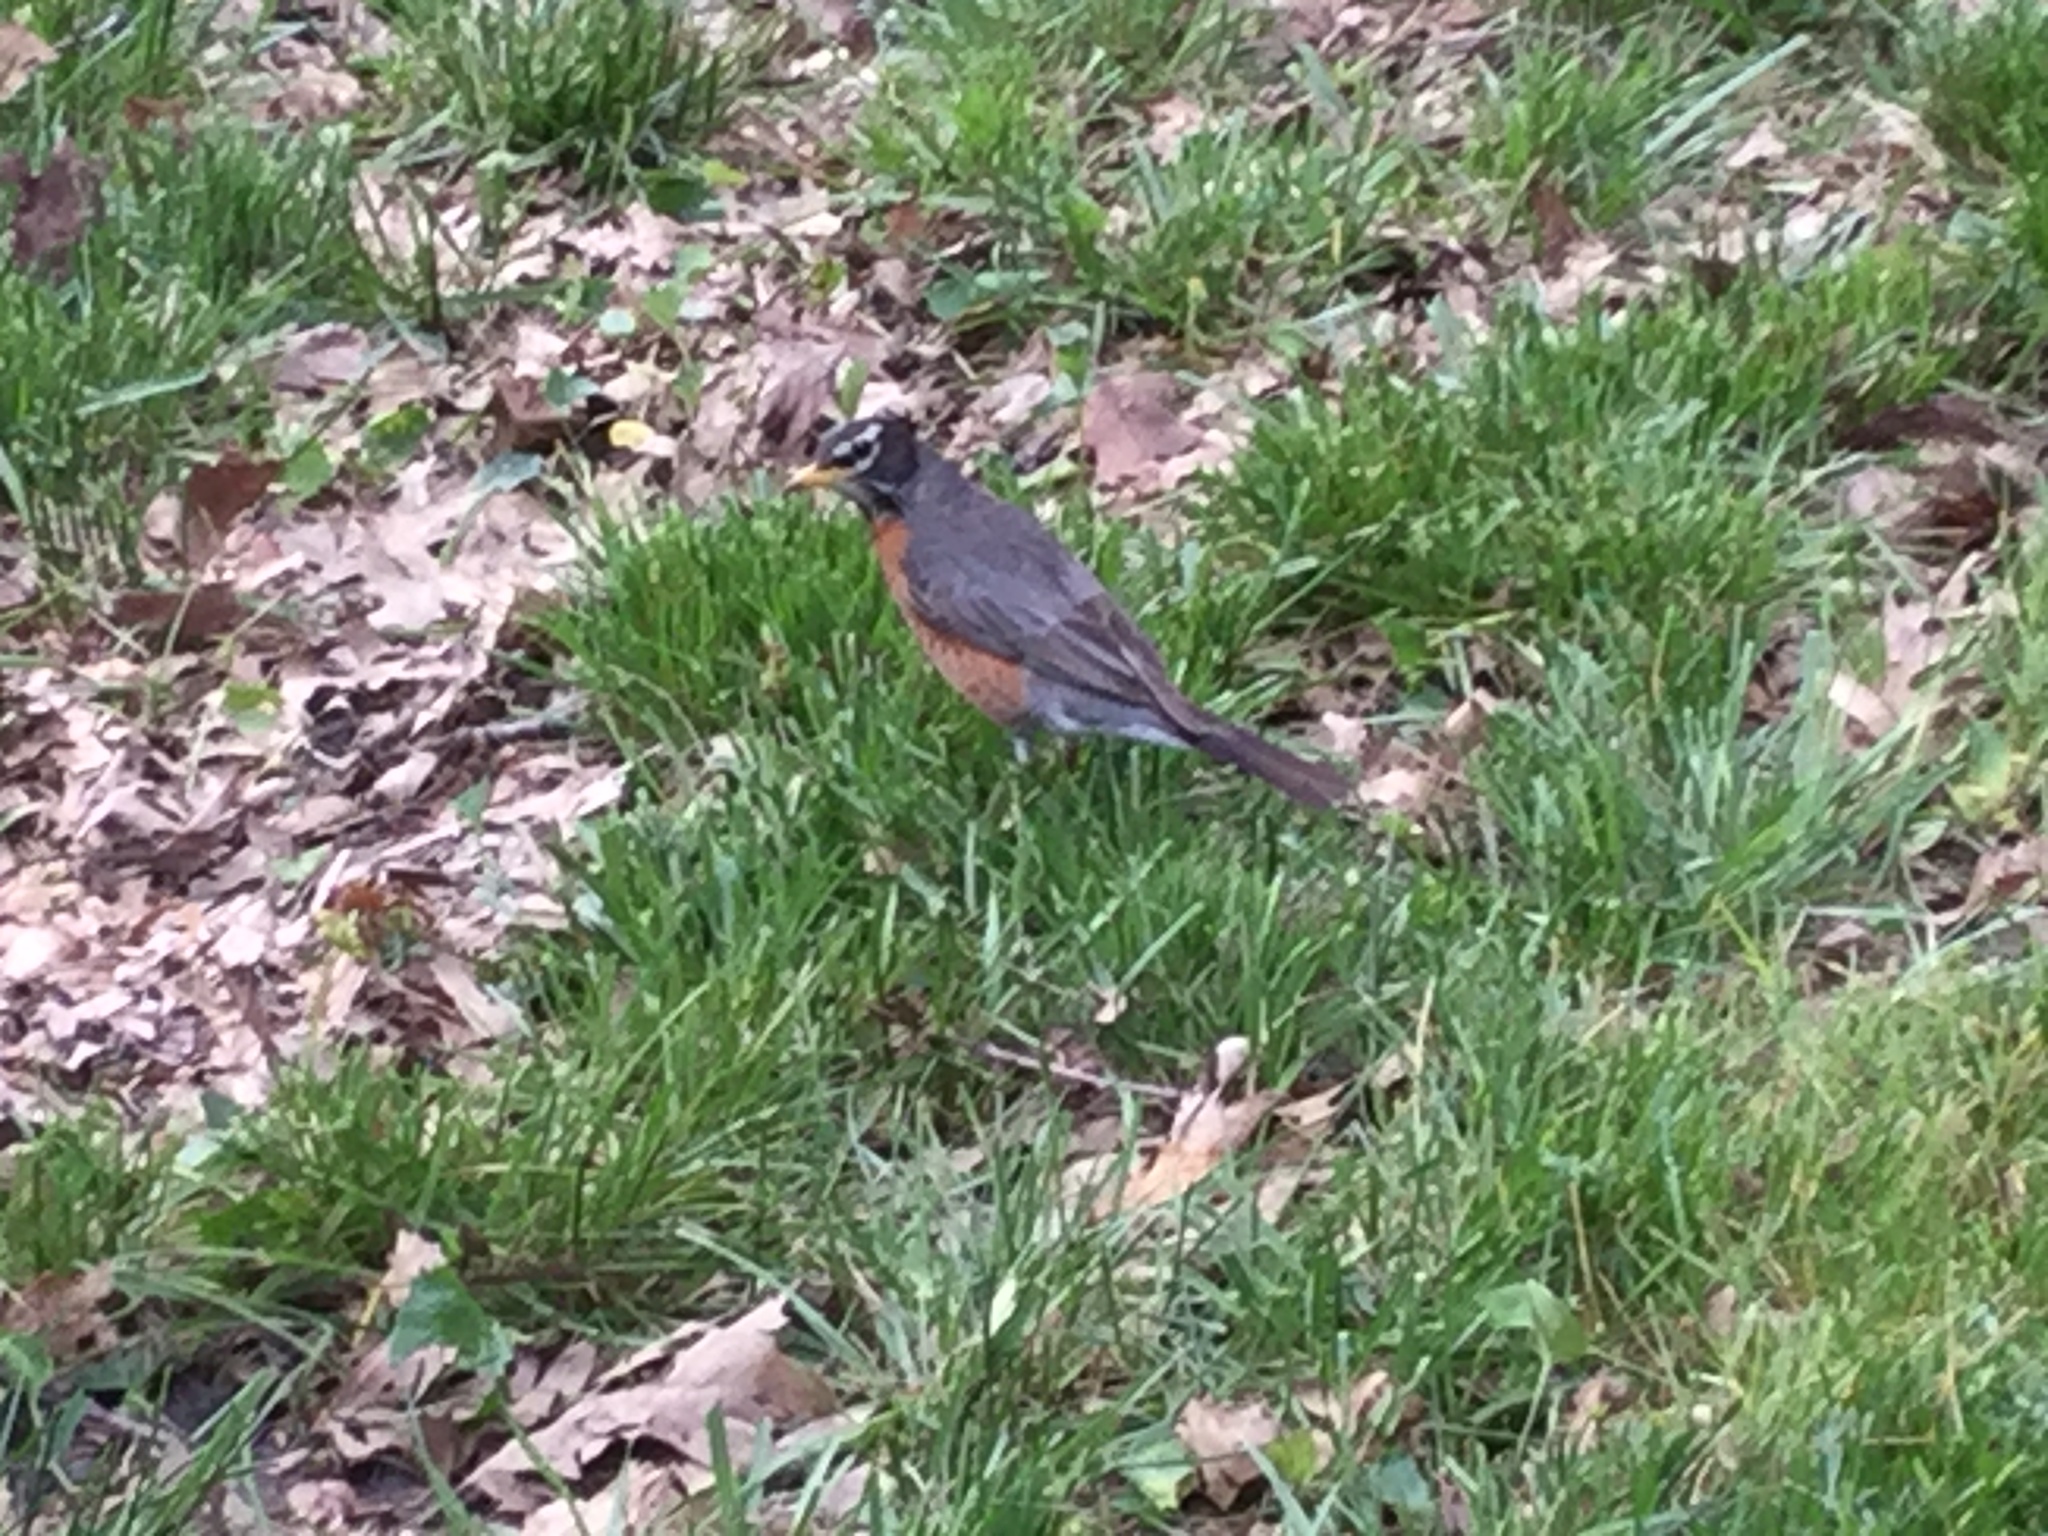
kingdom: Animalia
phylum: Chordata
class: Aves
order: Passeriformes
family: Turdidae
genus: Turdus
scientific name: Turdus migratorius
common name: American robin
